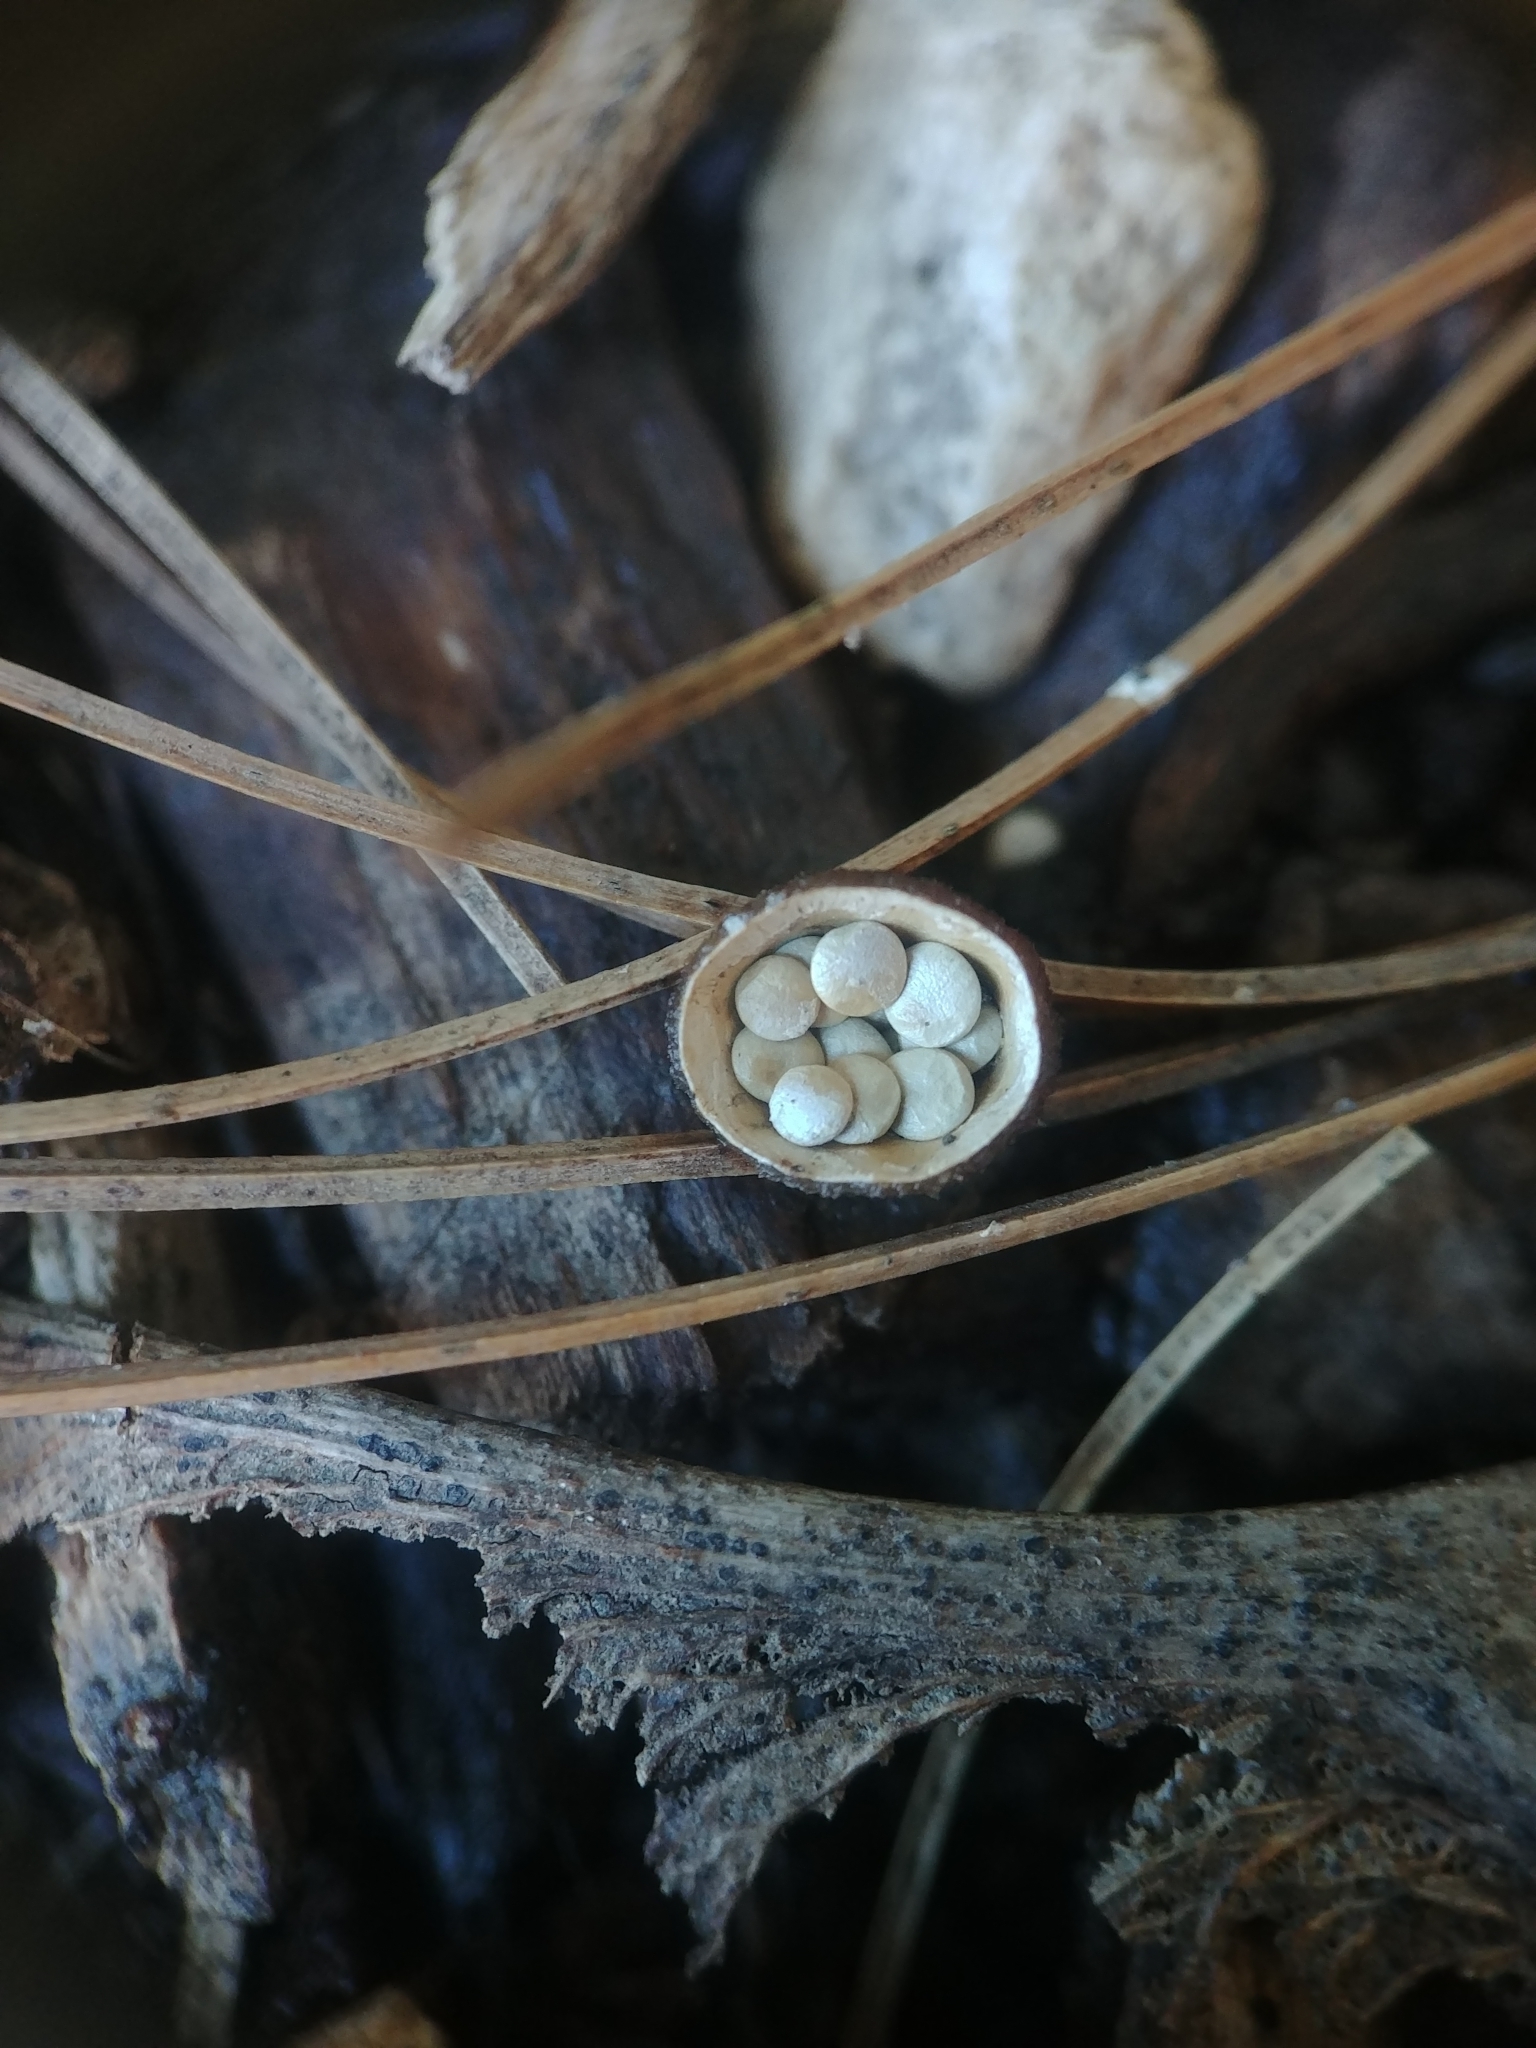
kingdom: Fungi
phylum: Basidiomycota
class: Agaricomycetes
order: Agaricales
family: Nidulariaceae
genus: Crucibulum
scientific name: Crucibulum laeve
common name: Common bird's nest
